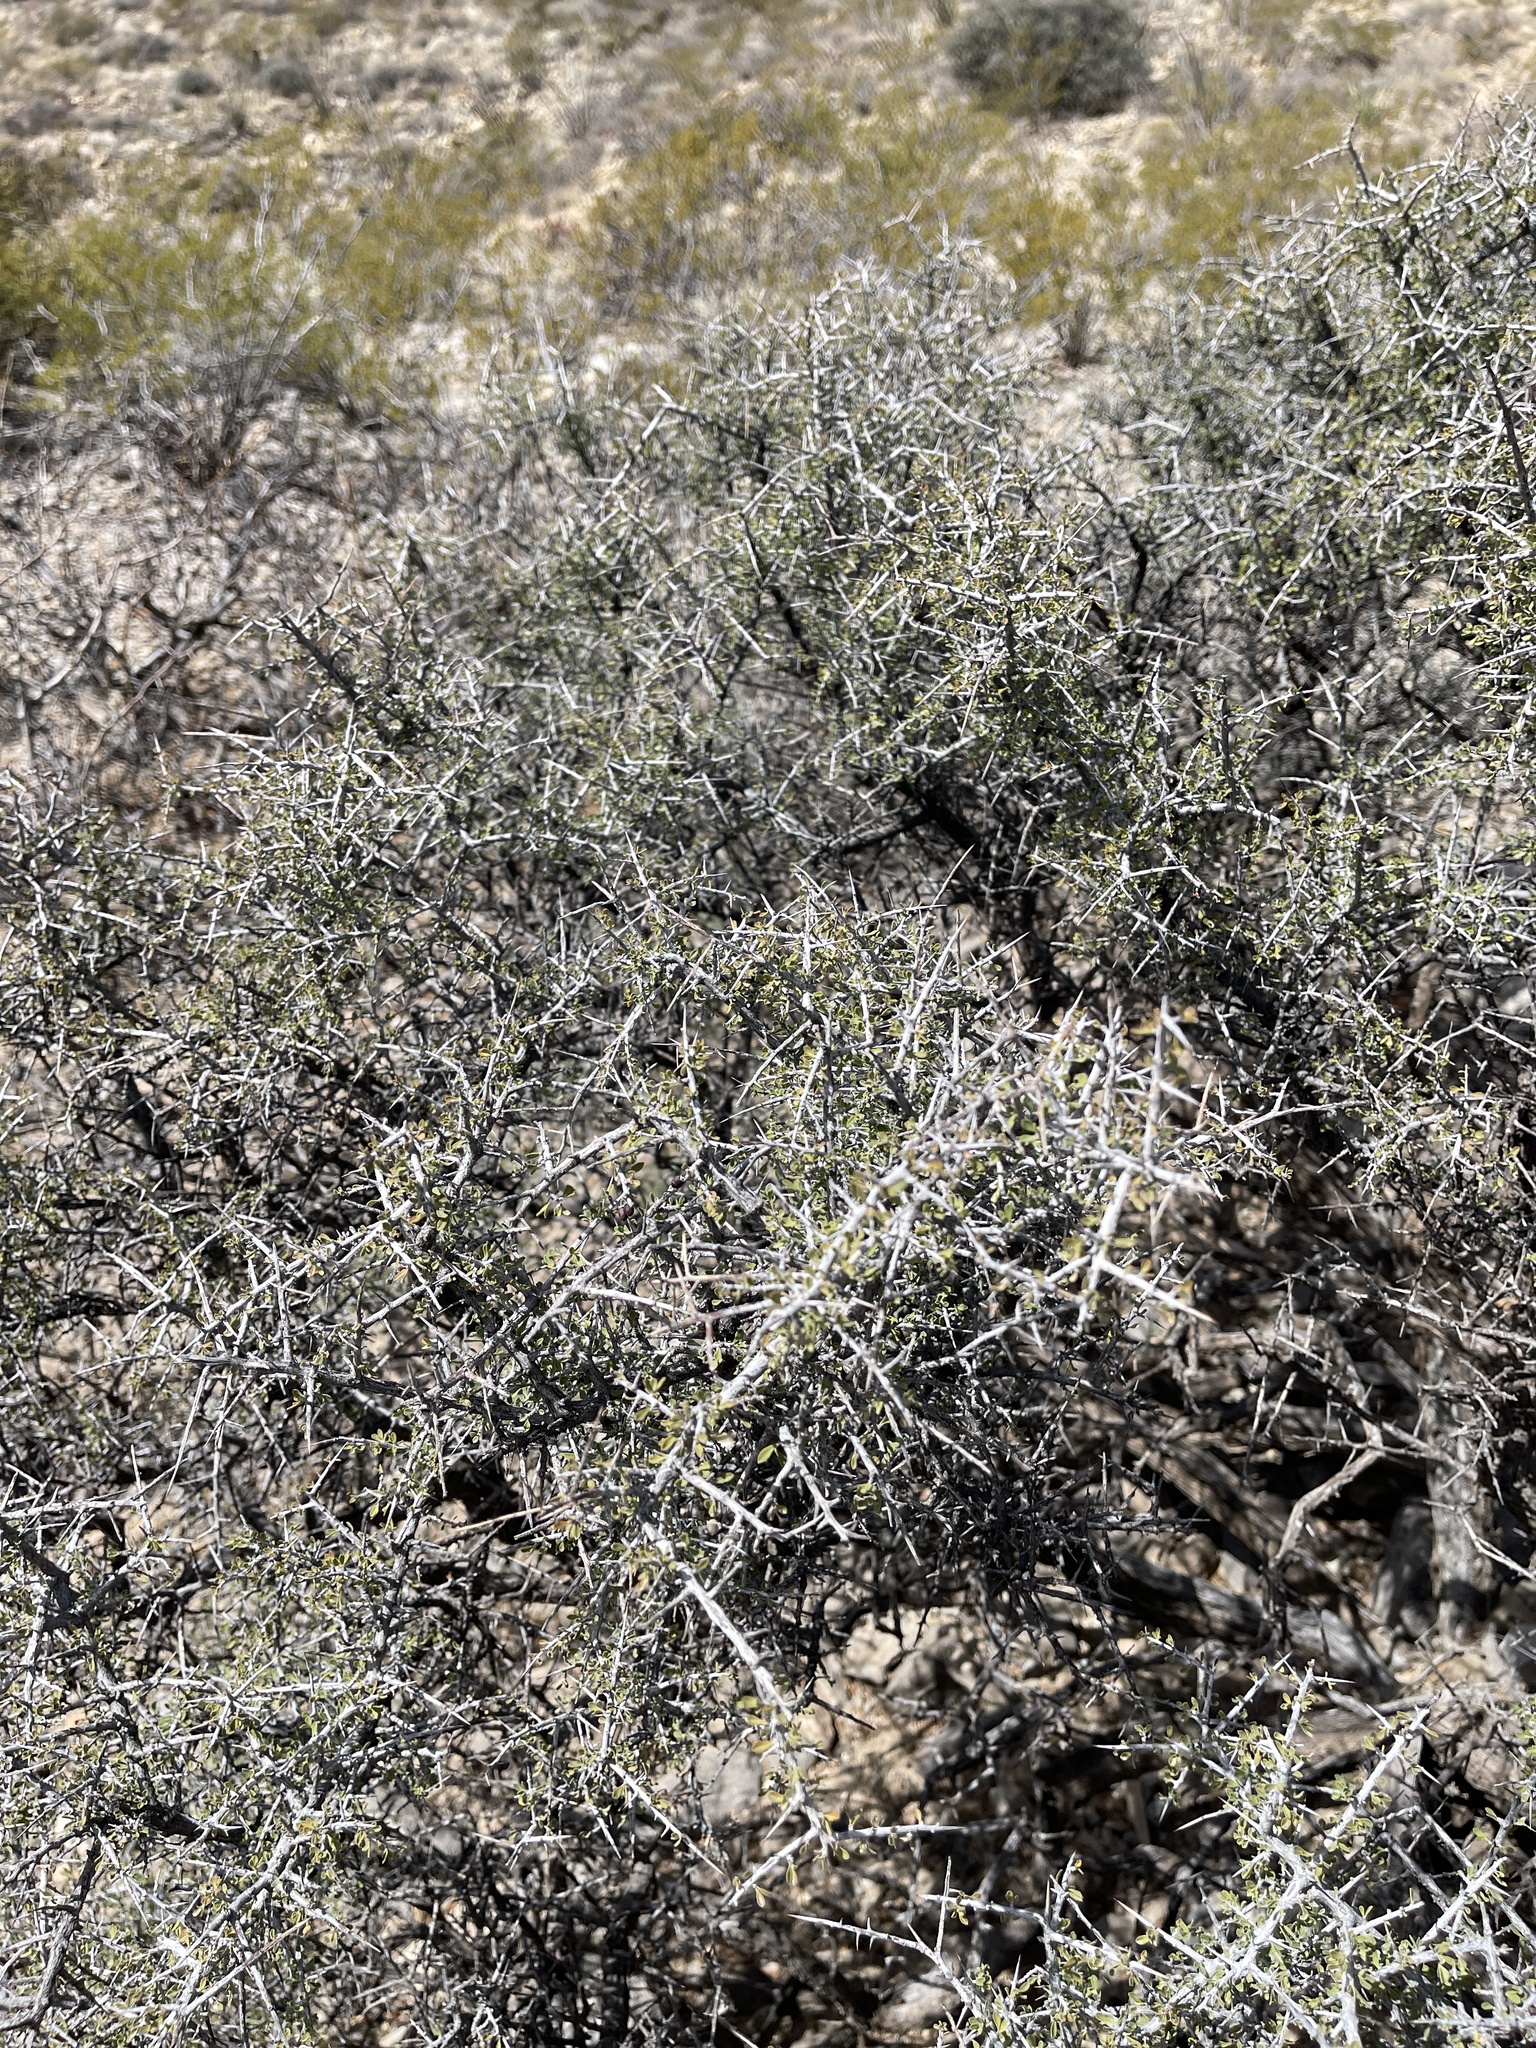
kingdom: Plantae
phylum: Tracheophyta
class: Magnoliopsida
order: Rosales
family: Rhamnaceae
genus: Condalia
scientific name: Condalia warnockii
